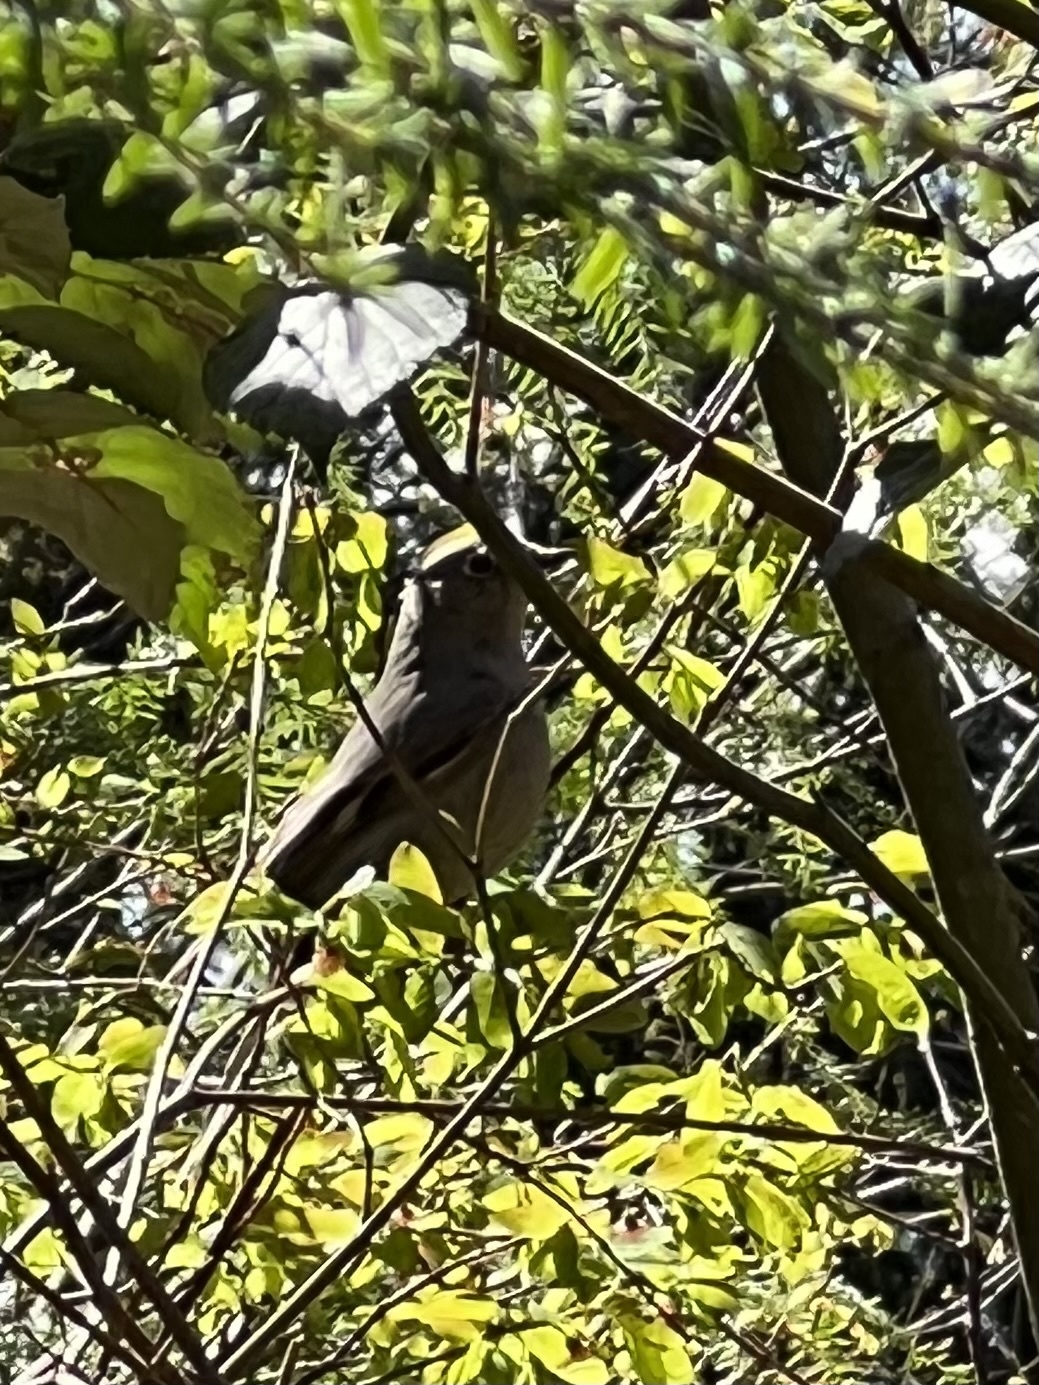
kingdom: Animalia
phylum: Chordata
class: Aves
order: Passeriformes
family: Turdidae
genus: Myadestes
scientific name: Myadestes townsendi
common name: Townsend's solitaire
